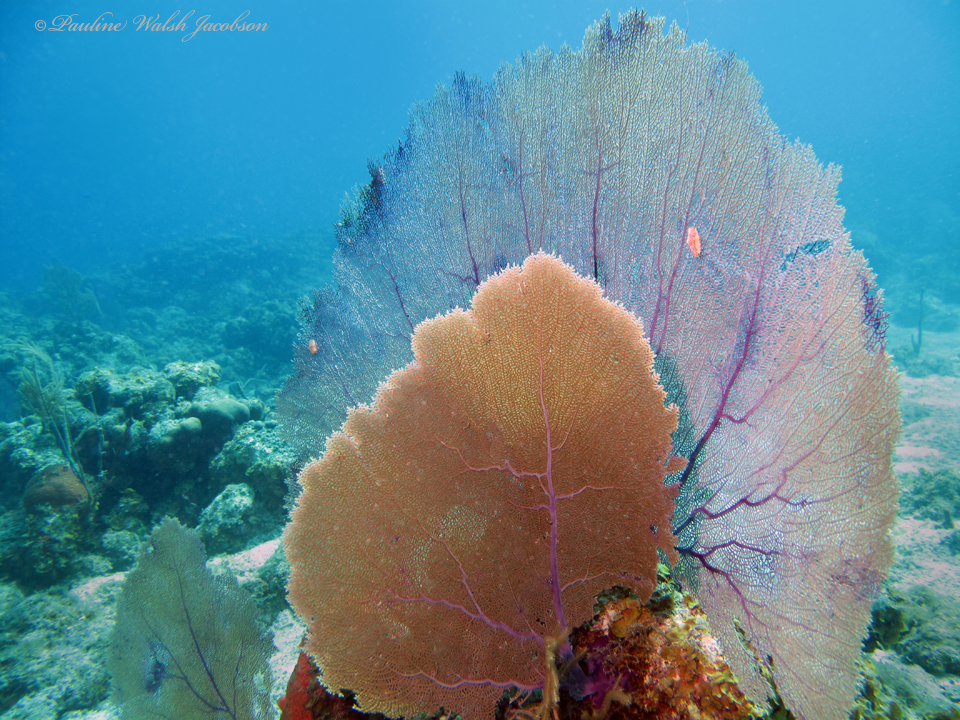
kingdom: Animalia
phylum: Cnidaria
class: Anthozoa
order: Malacalcyonacea
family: Gorgoniidae
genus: Gorgonia
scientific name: Gorgonia ventalina
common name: Common sea fan
